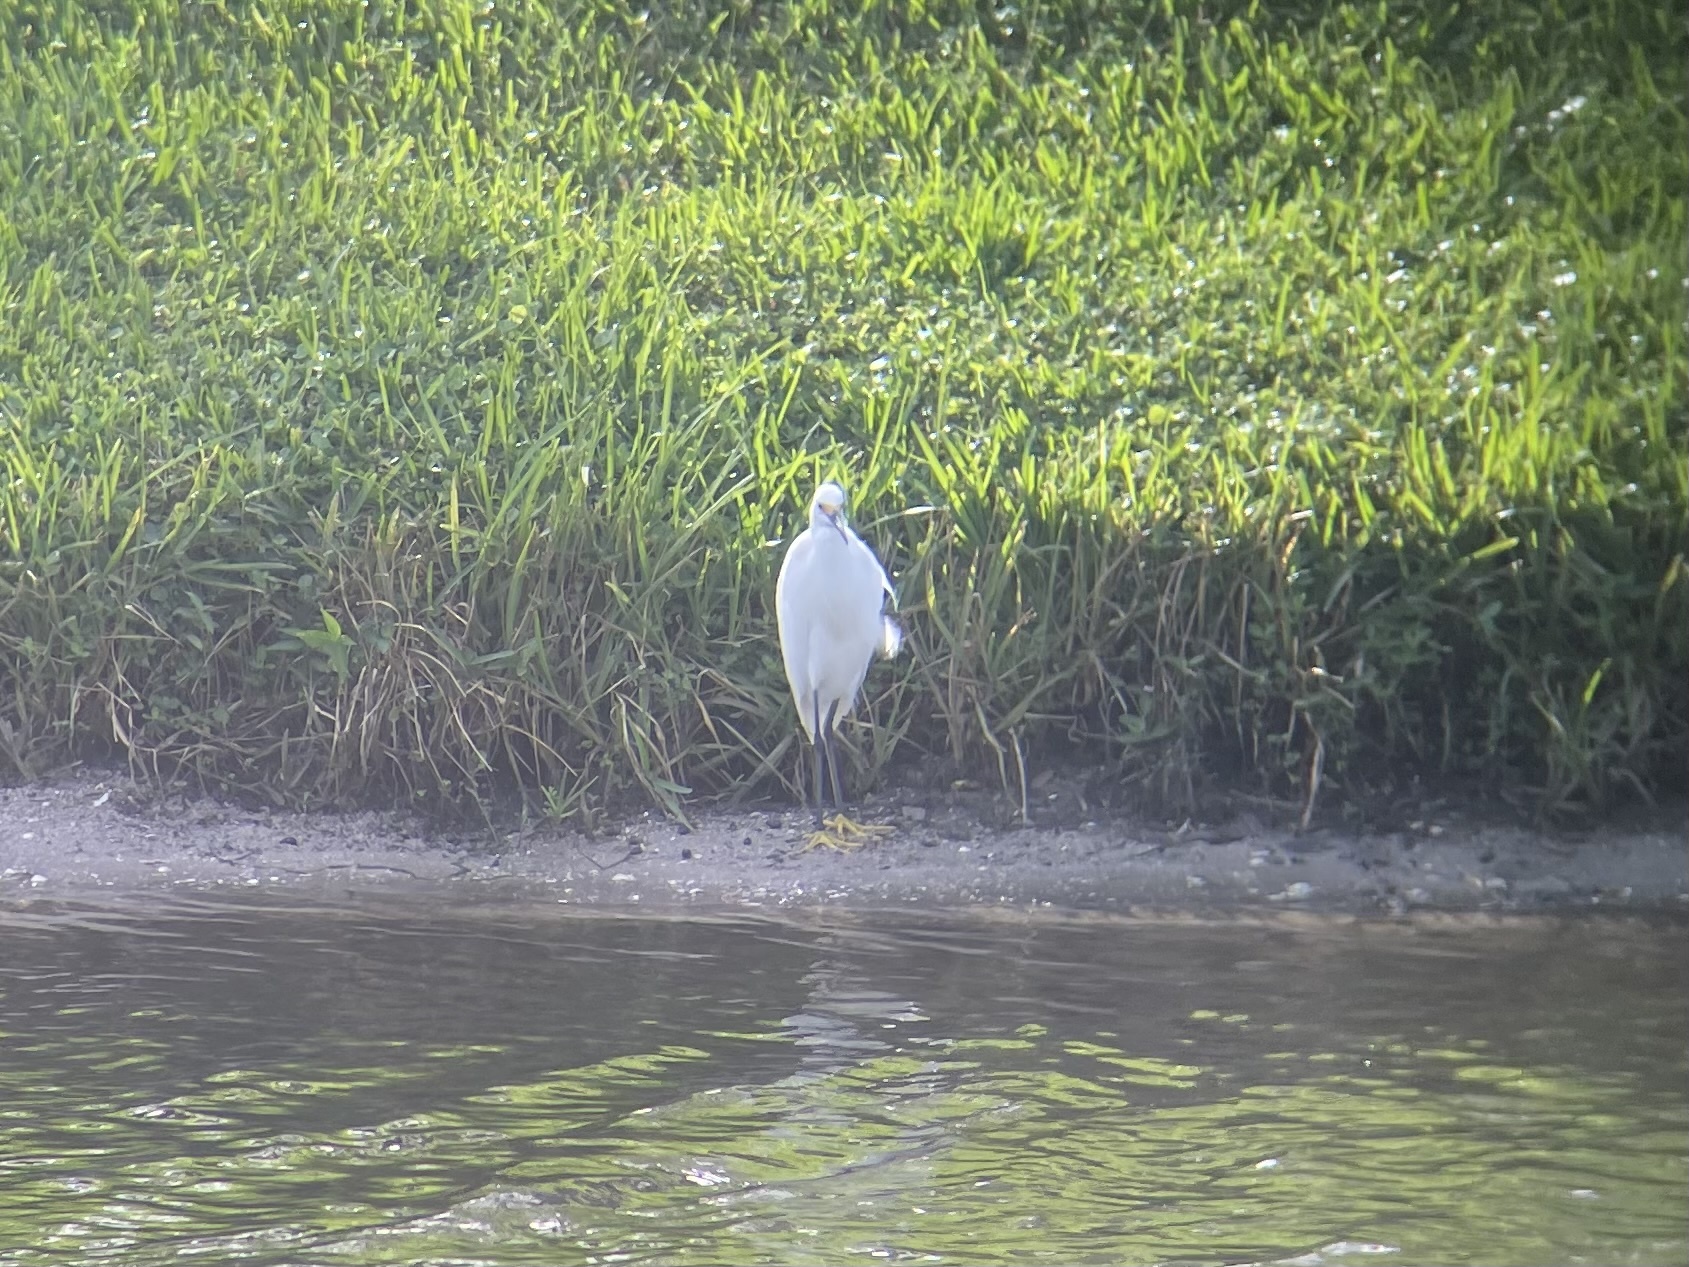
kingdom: Animalia
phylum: Chordata
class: Aves
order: Pelecaniformes
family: Ardeidae
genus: Egretta
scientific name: Egretta thula
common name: Snowy egret
